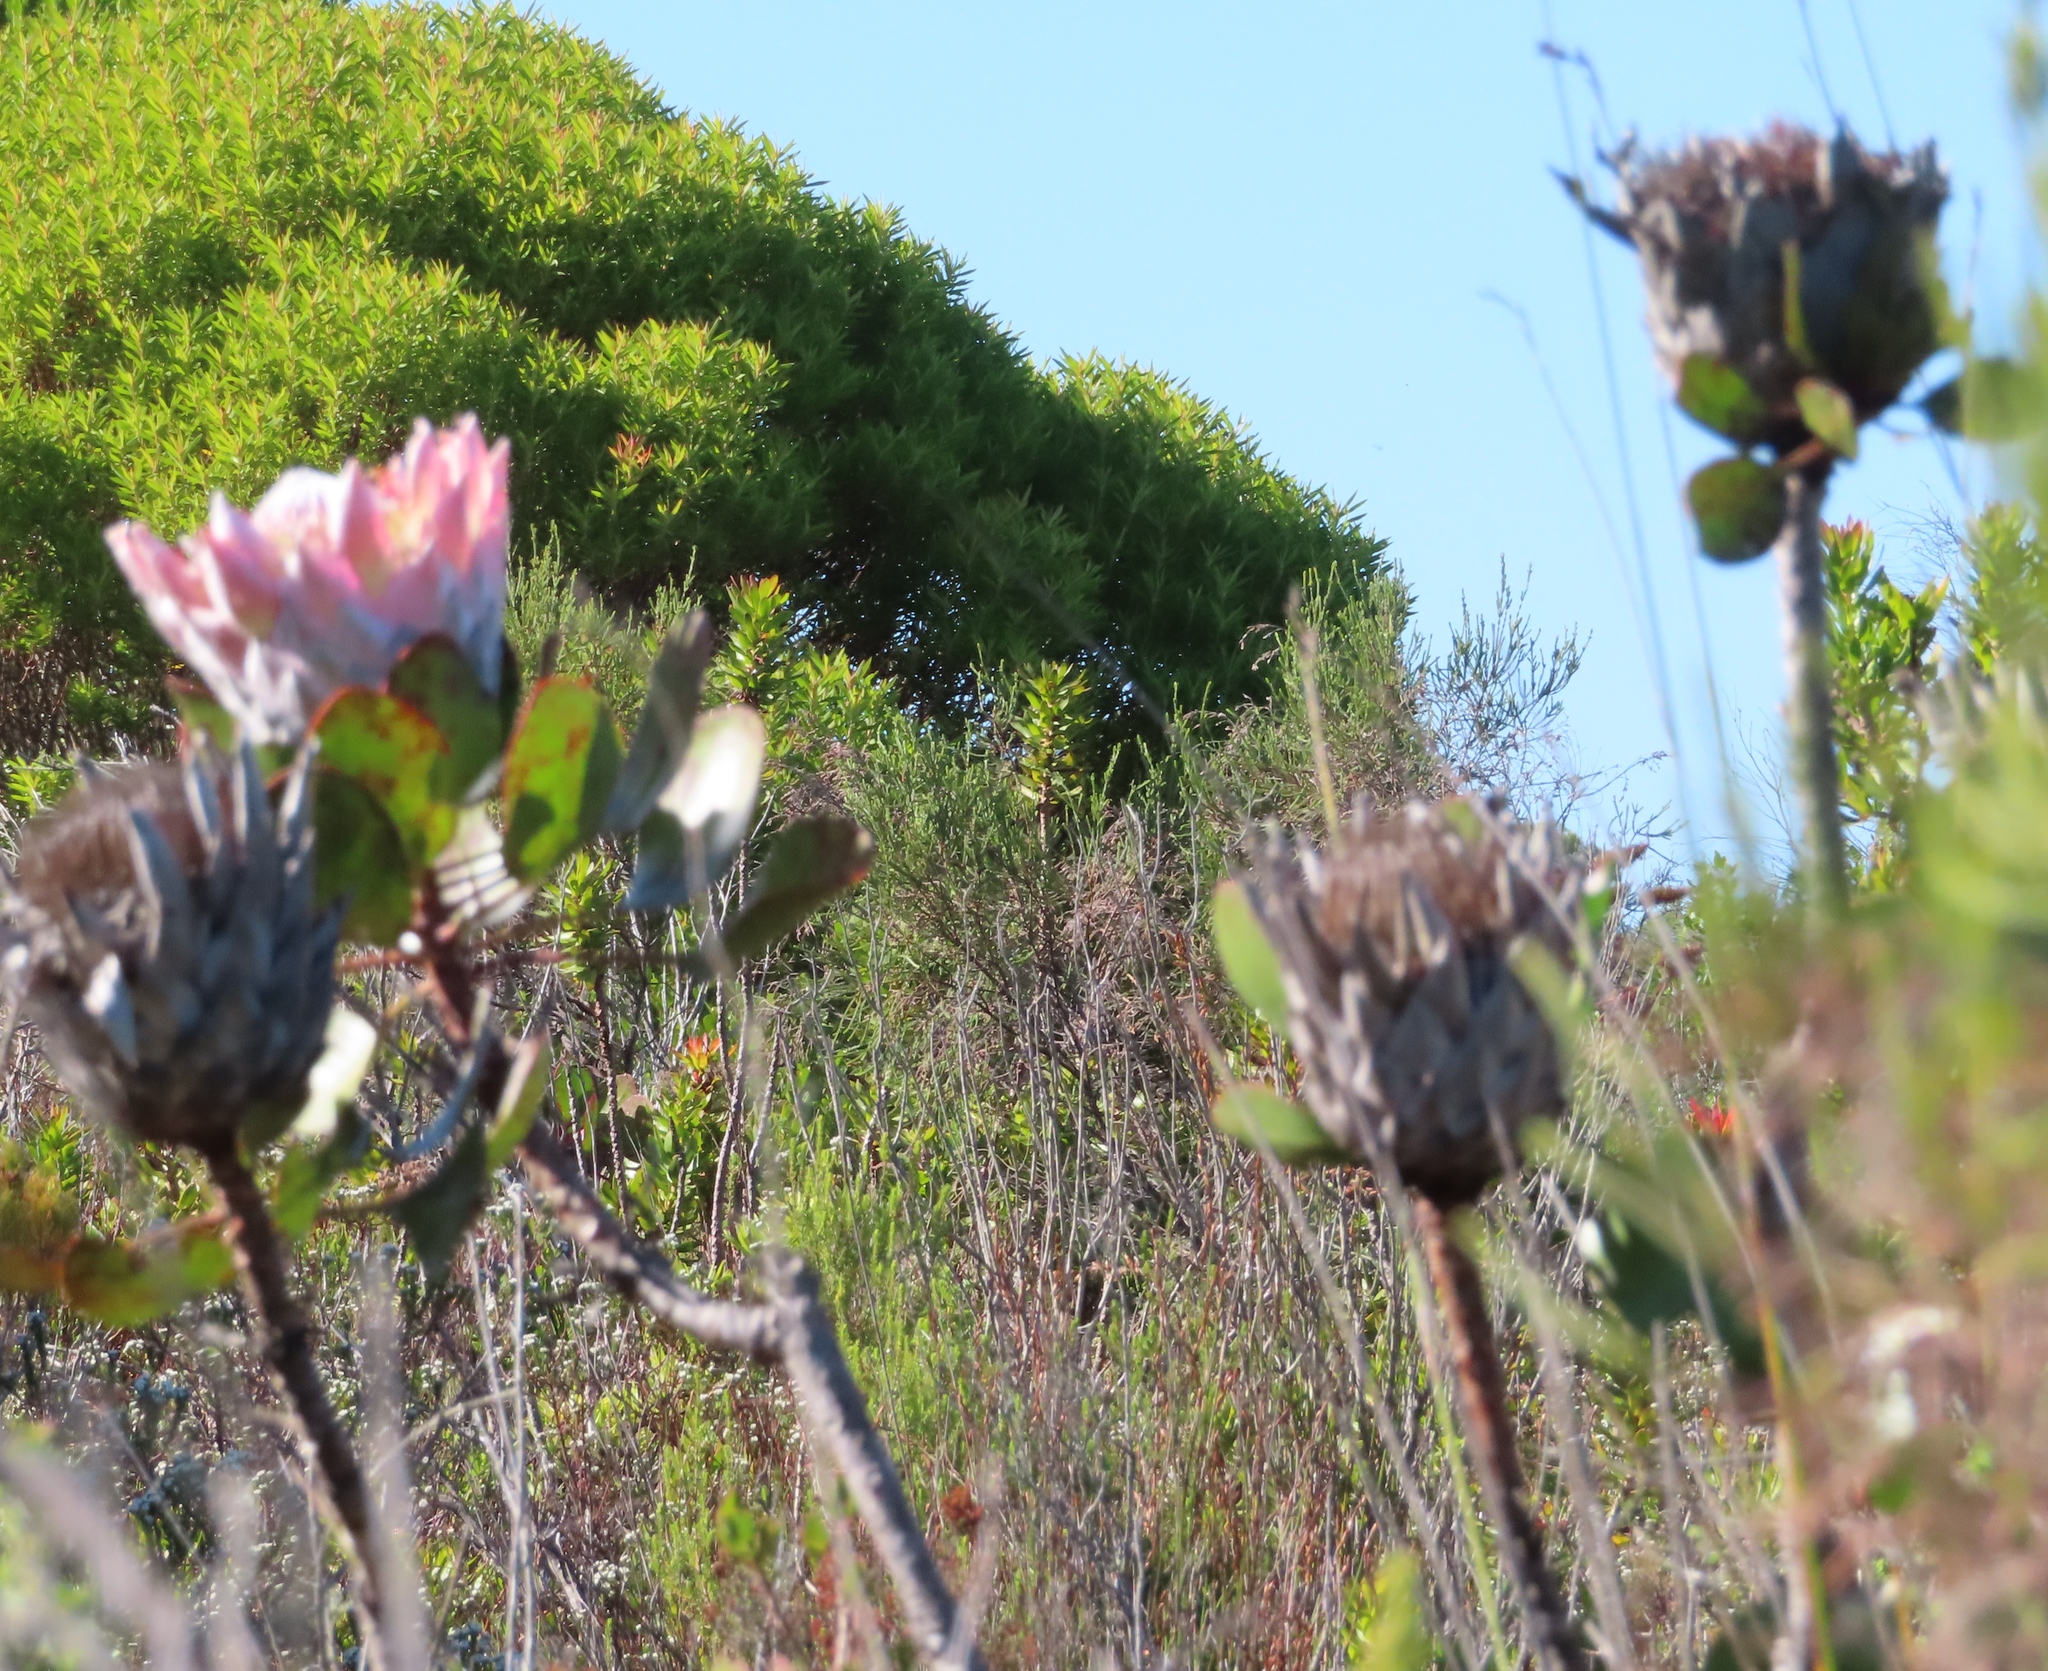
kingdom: Plantae
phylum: Tracheophyta
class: Magnoliopsida
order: Proteales
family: Proteaceae
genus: Protea
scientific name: Protea cynaroides
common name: King protea
